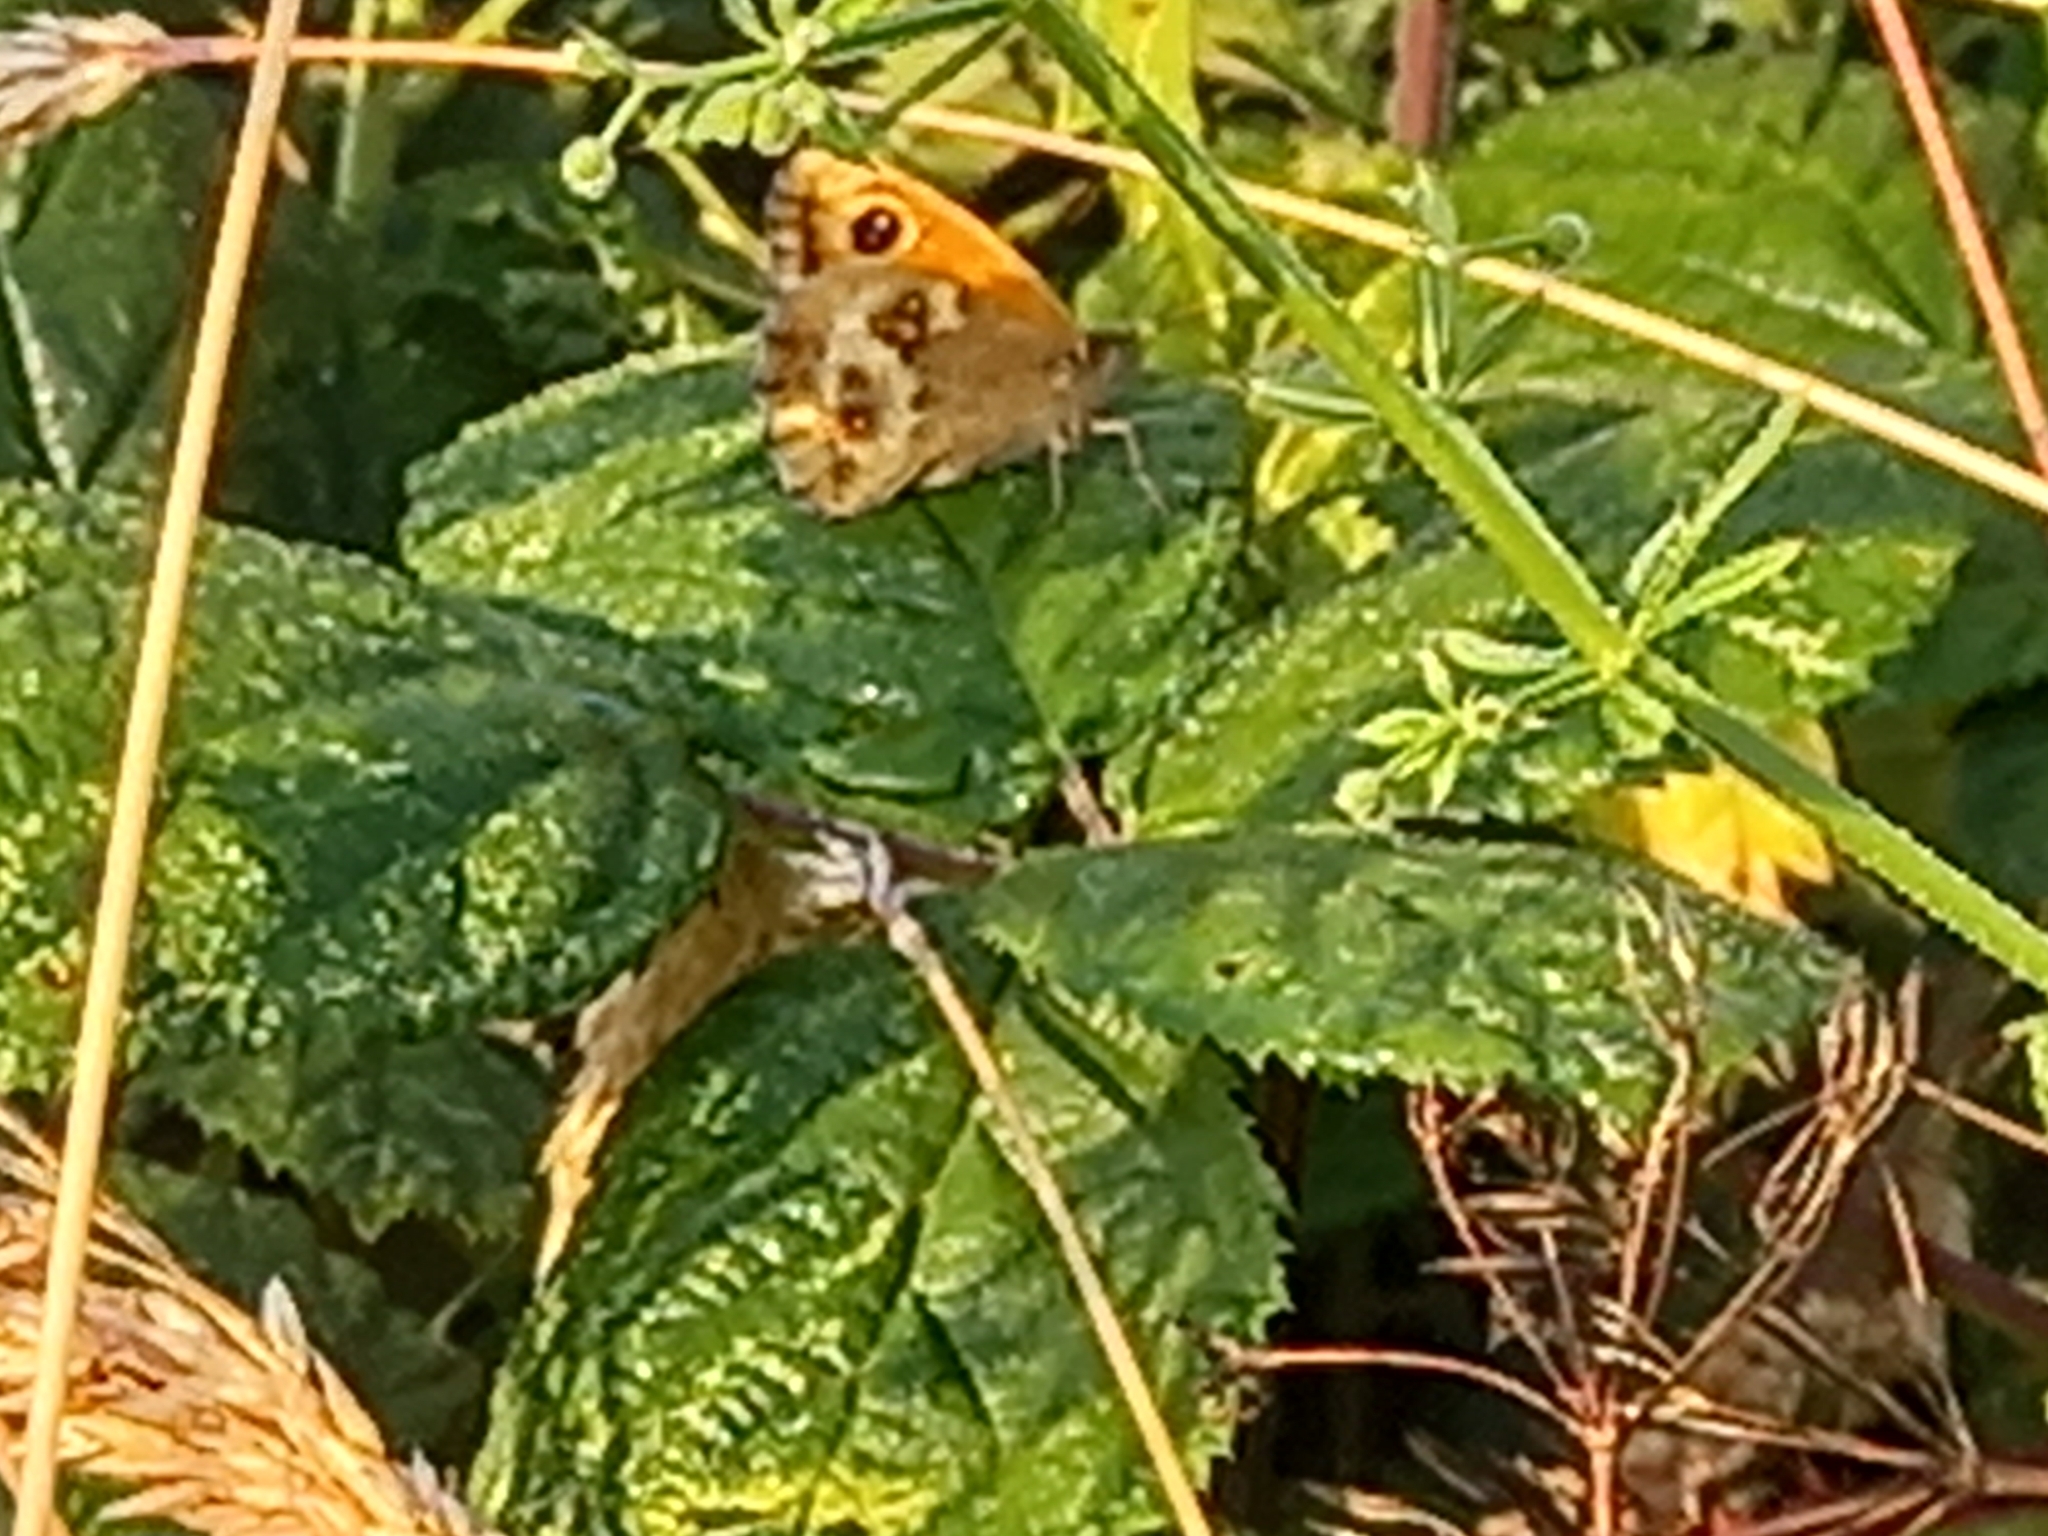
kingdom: Animalia
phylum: Arthropoda
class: Insecta
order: Lepidoptera
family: Nymphalidae
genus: Pyronia
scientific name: Pyronia tithonus
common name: Gatekeeper
